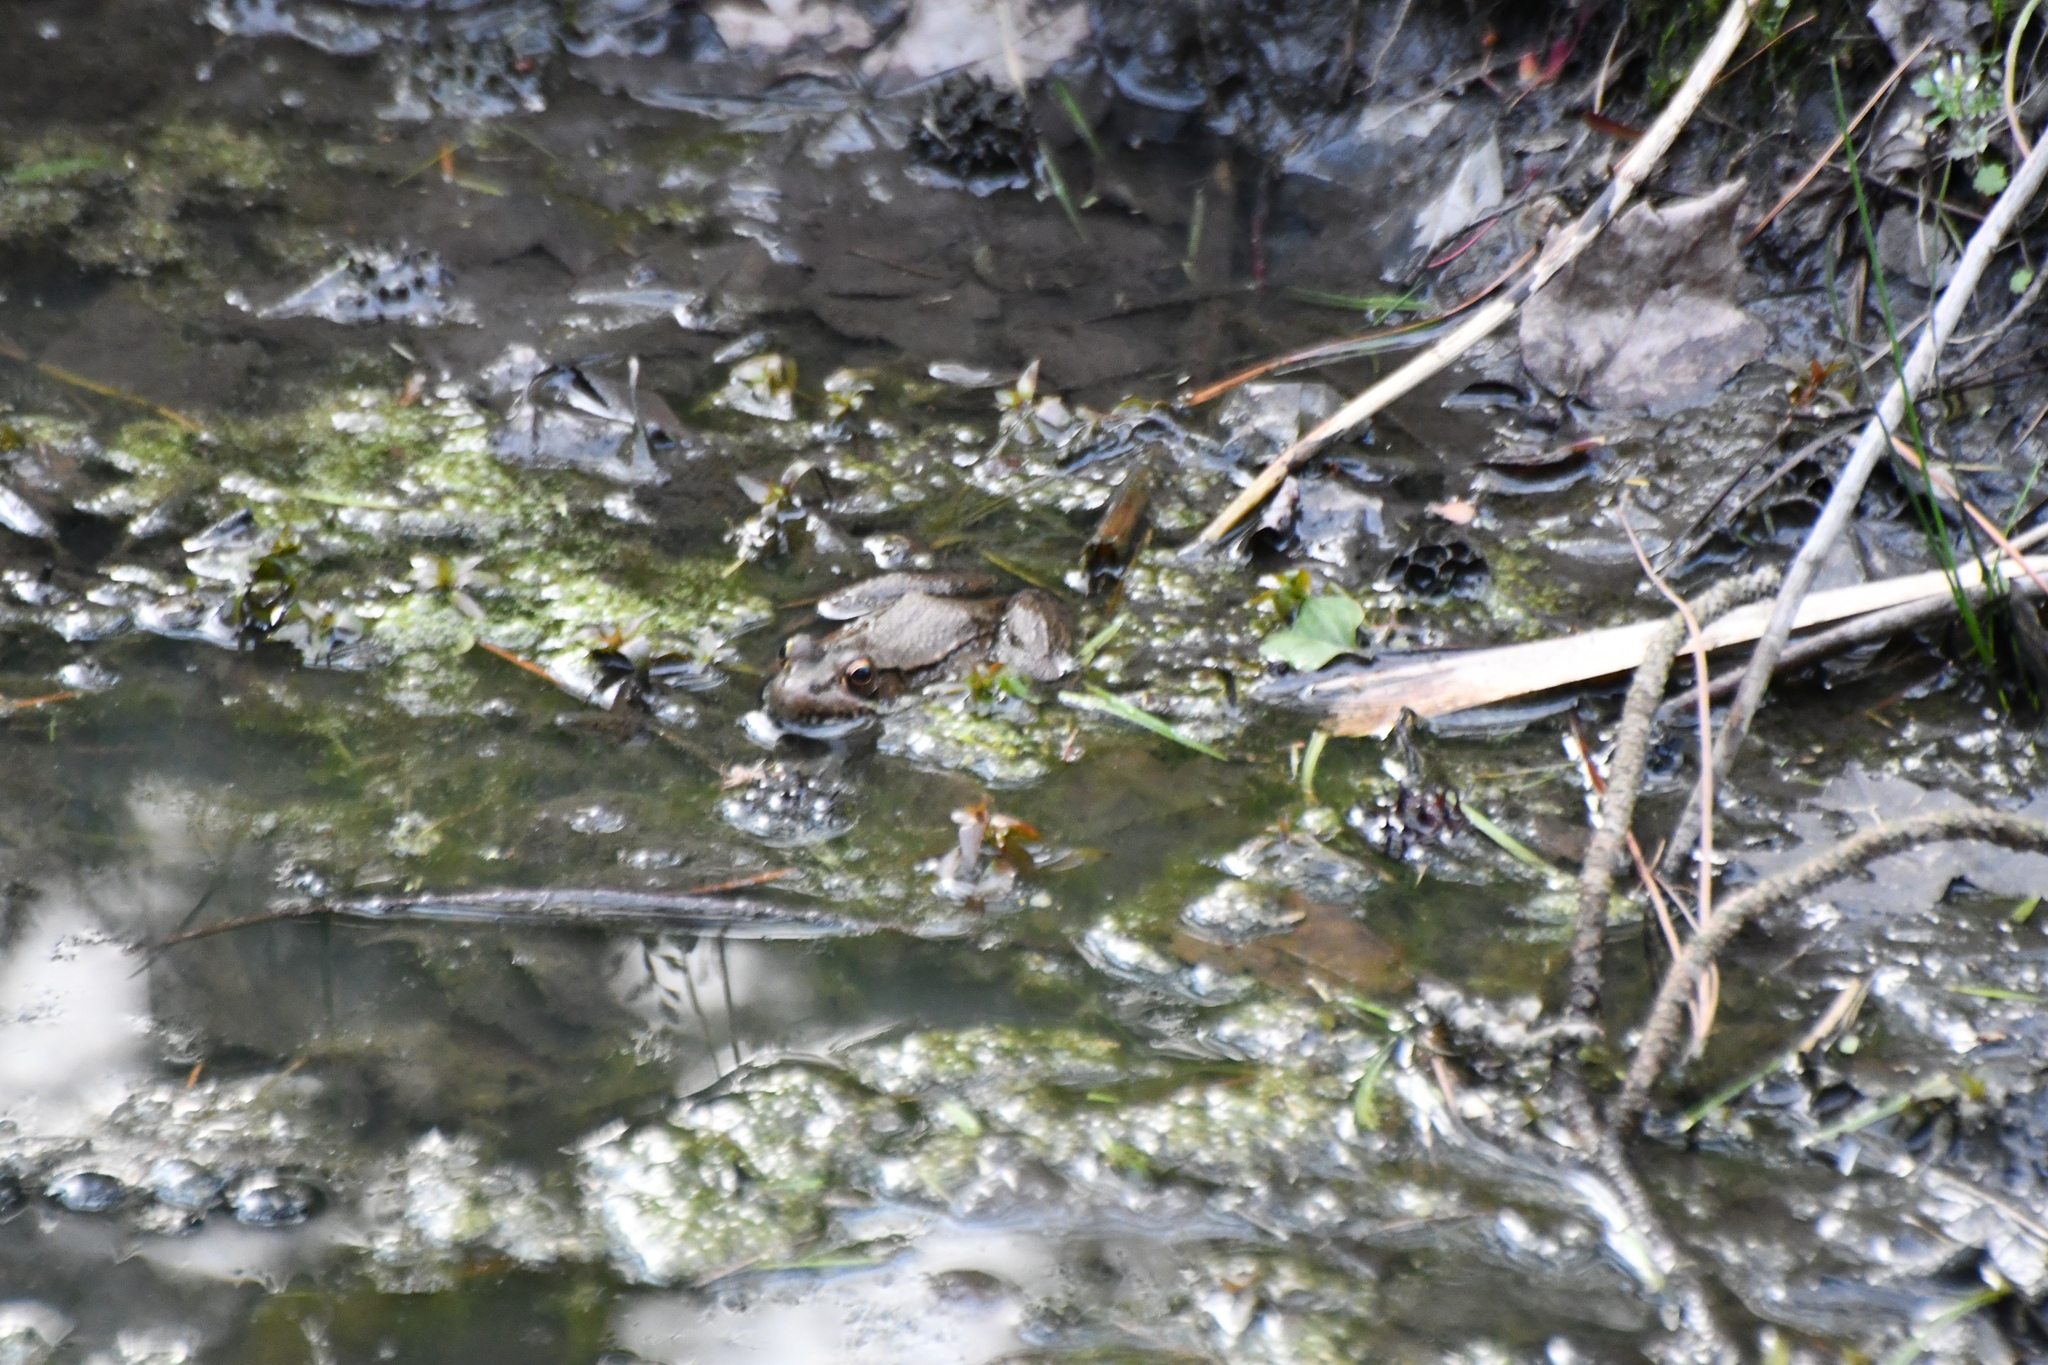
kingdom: Animalia
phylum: Chordata
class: Amphibia
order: Anura
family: Ranidae
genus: Lithobates
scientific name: Lithobates clamitans
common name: Green frog
